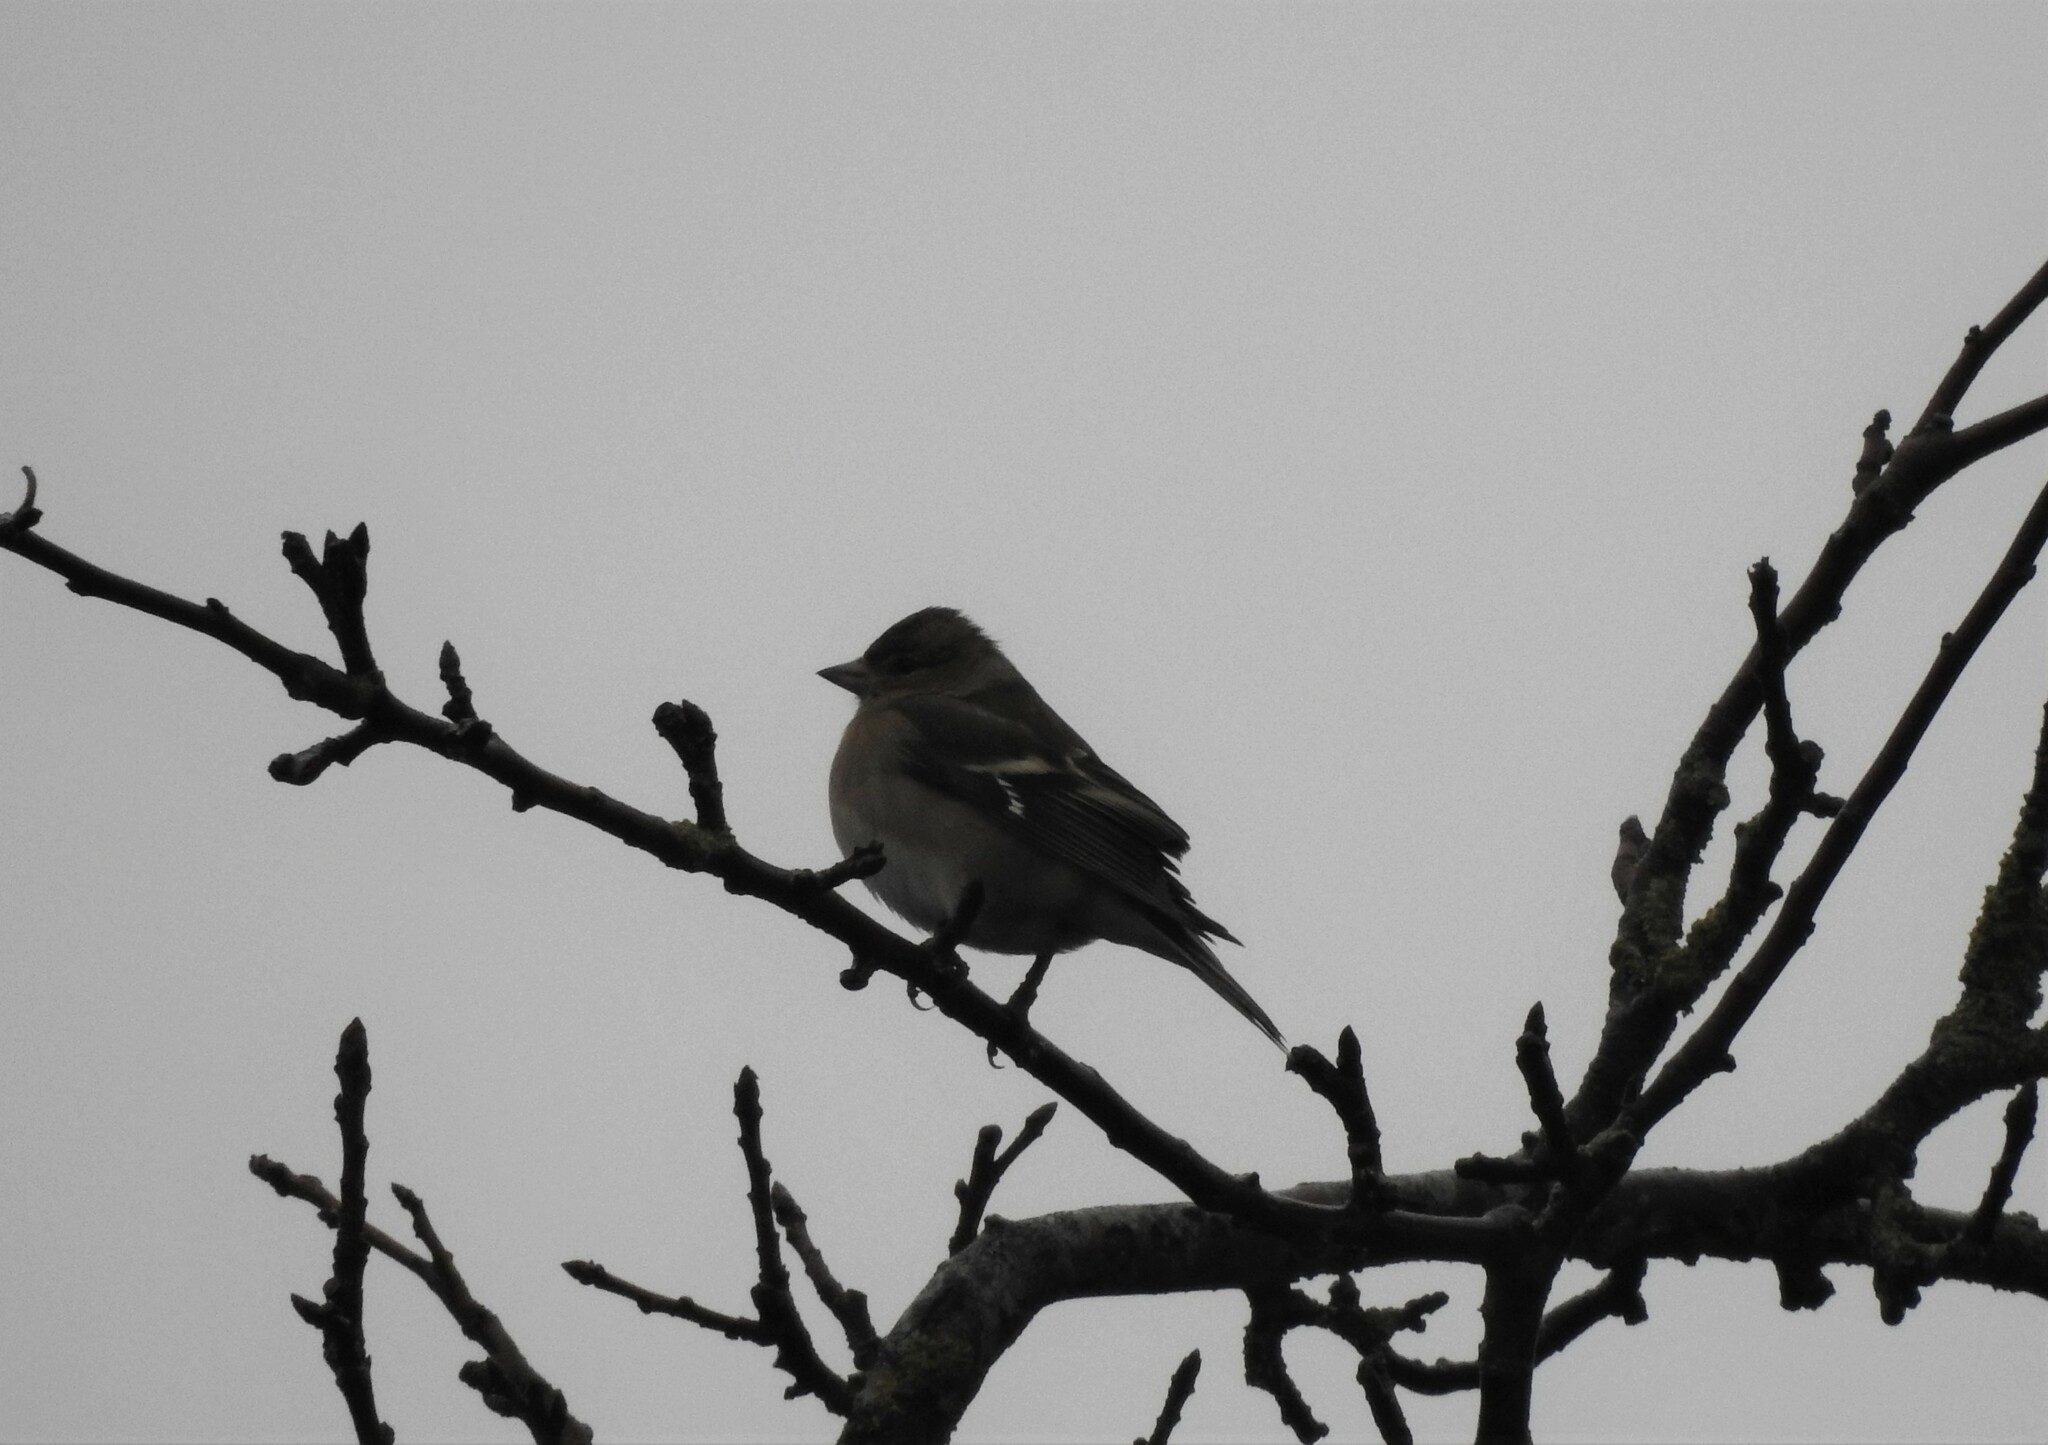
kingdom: Animalia
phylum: Chordata
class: Aves
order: Passeriformes
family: Fringillidae
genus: Fringilla
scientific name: Fringilla coelebs
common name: Common chaffinch
